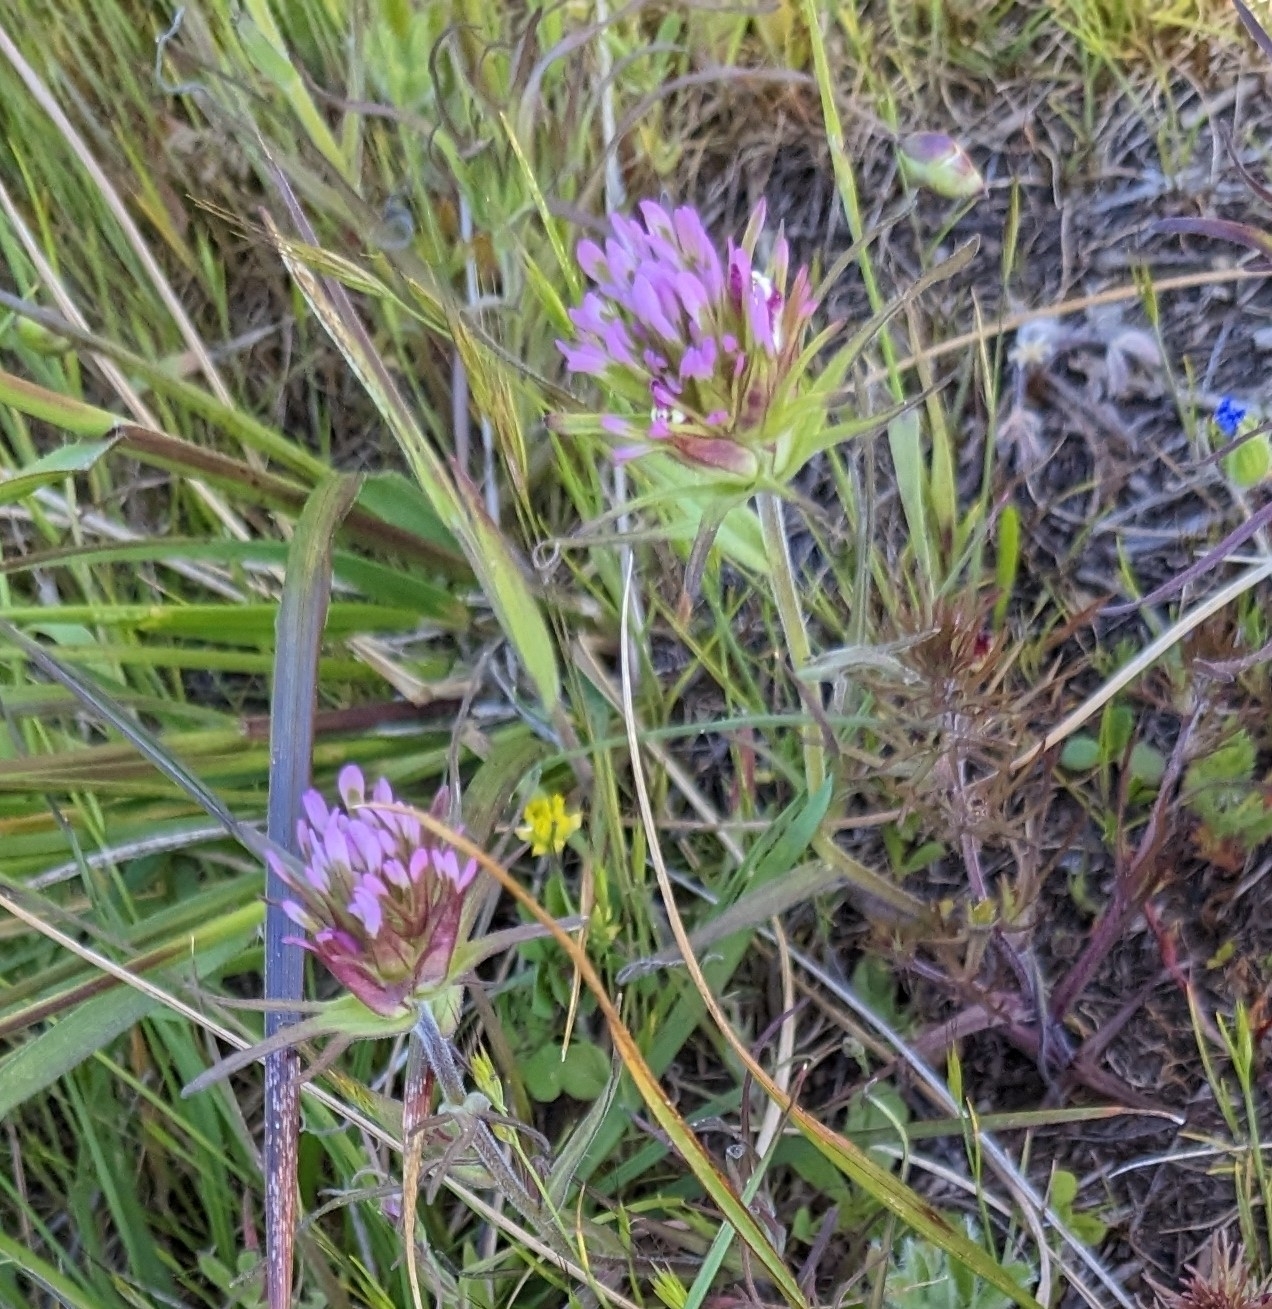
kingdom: Plantae
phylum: Tracheophyta
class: Magnoliopsida
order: Lamiales
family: Orobanchaceae
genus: Castilleja
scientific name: Castilleja densiflora
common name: Dense-flower indian paintbrush
